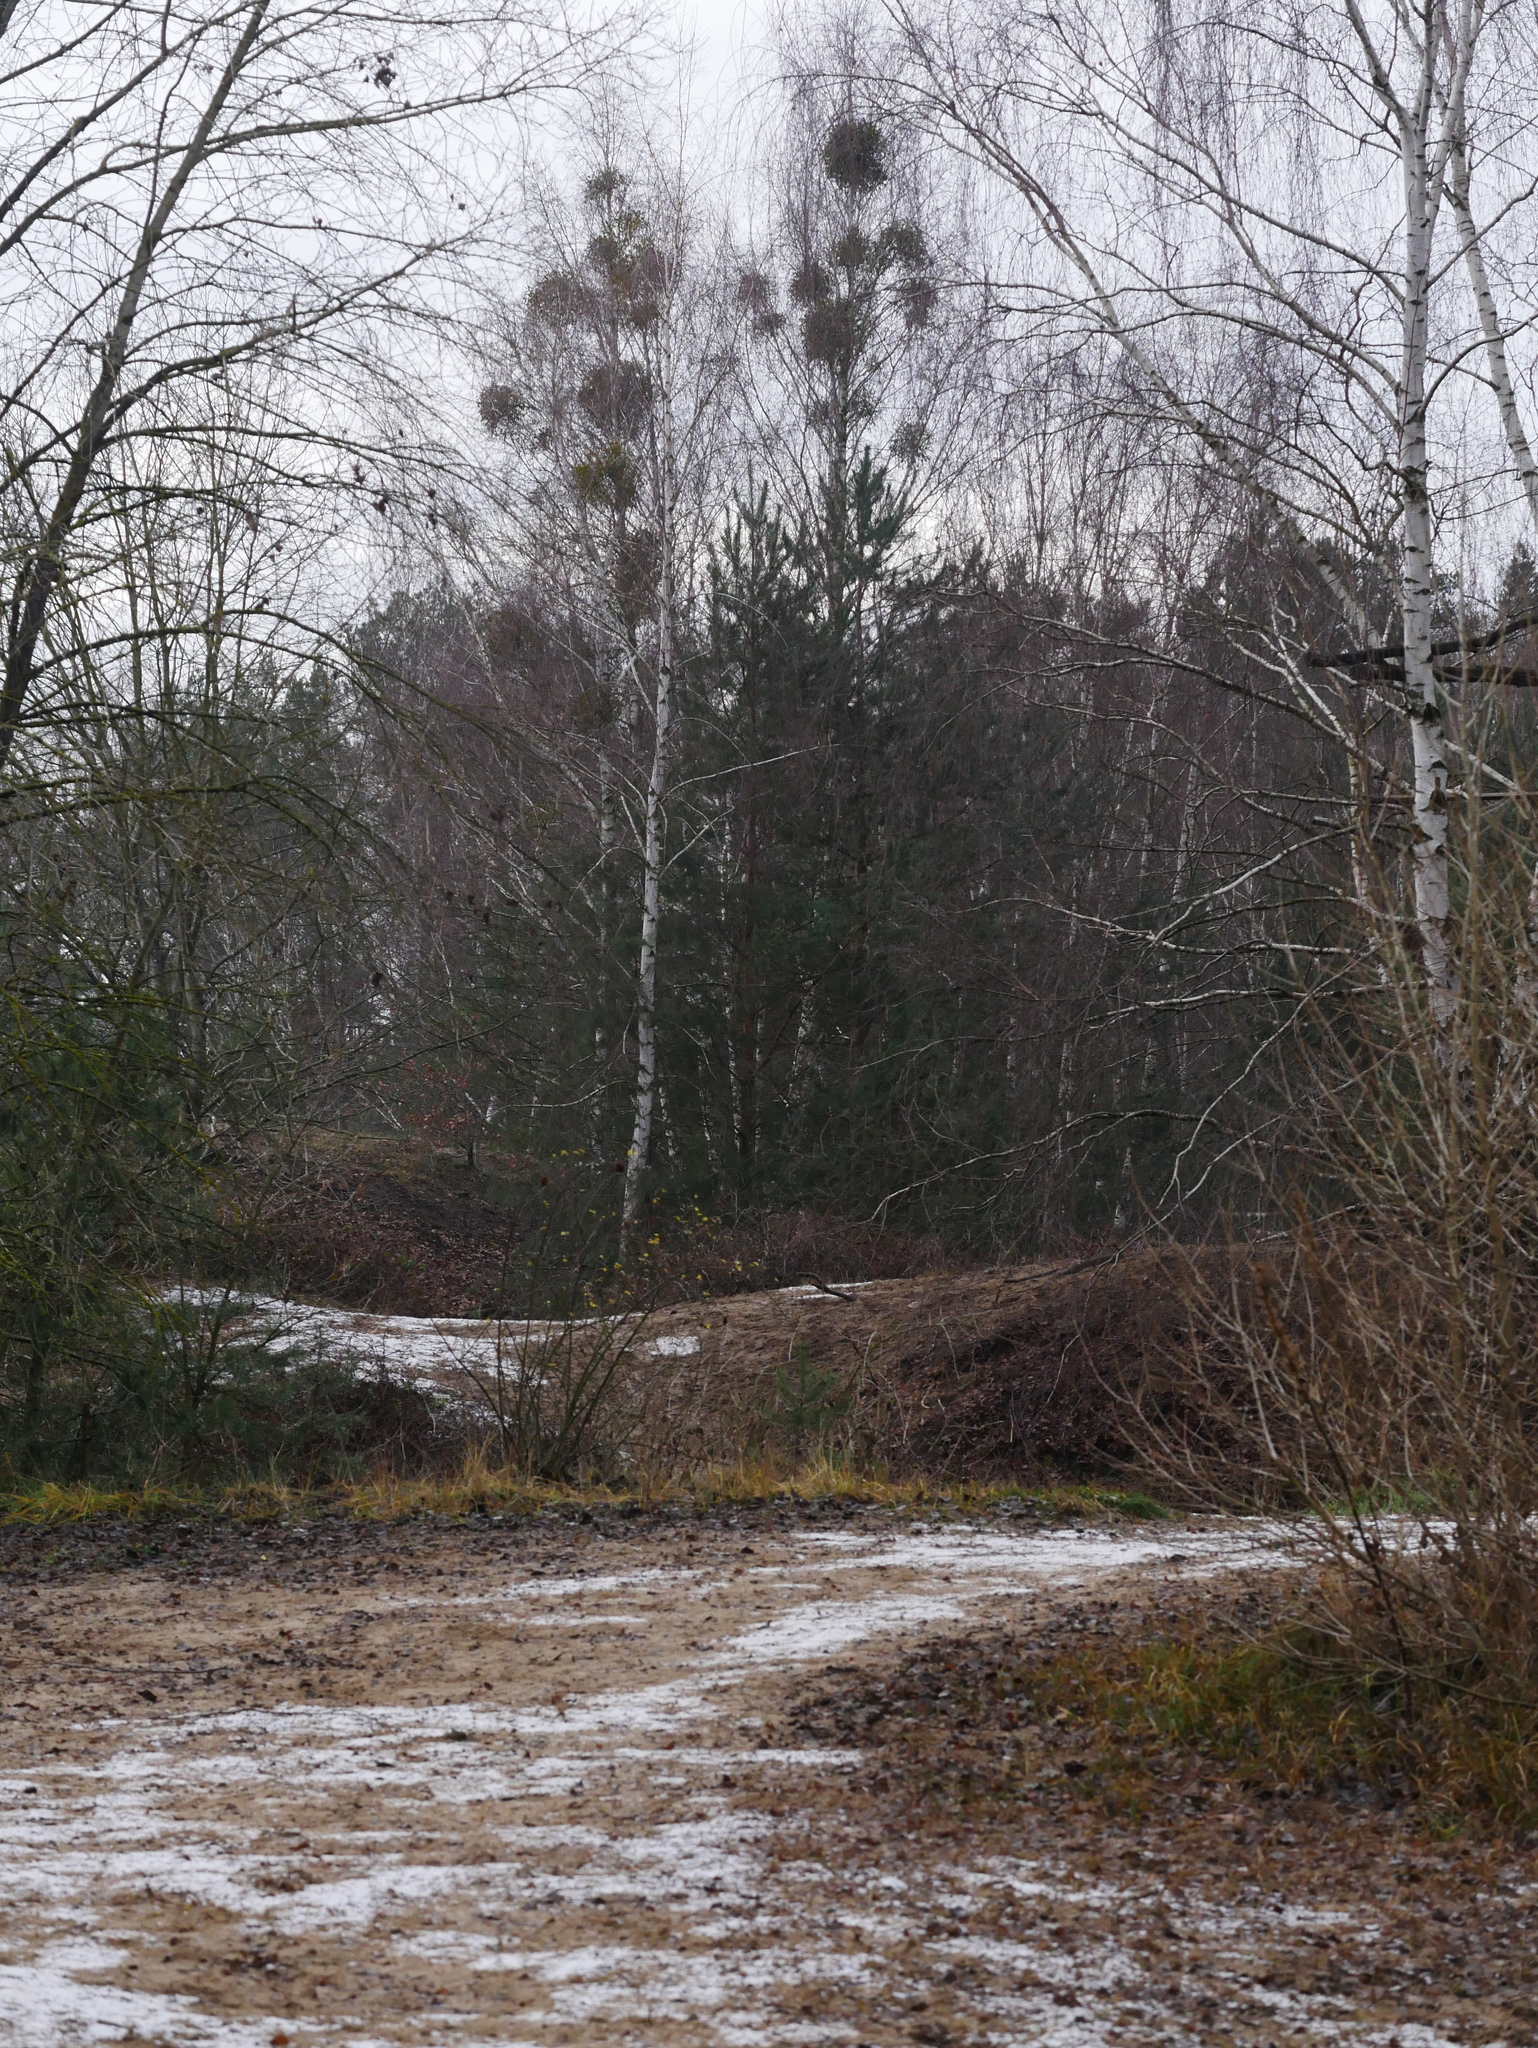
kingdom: Plantae
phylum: Tracheophyta
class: Magnoliopsida
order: Santalales
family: Viscaceae
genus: Viscum
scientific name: Viscum album
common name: Mistletoe
